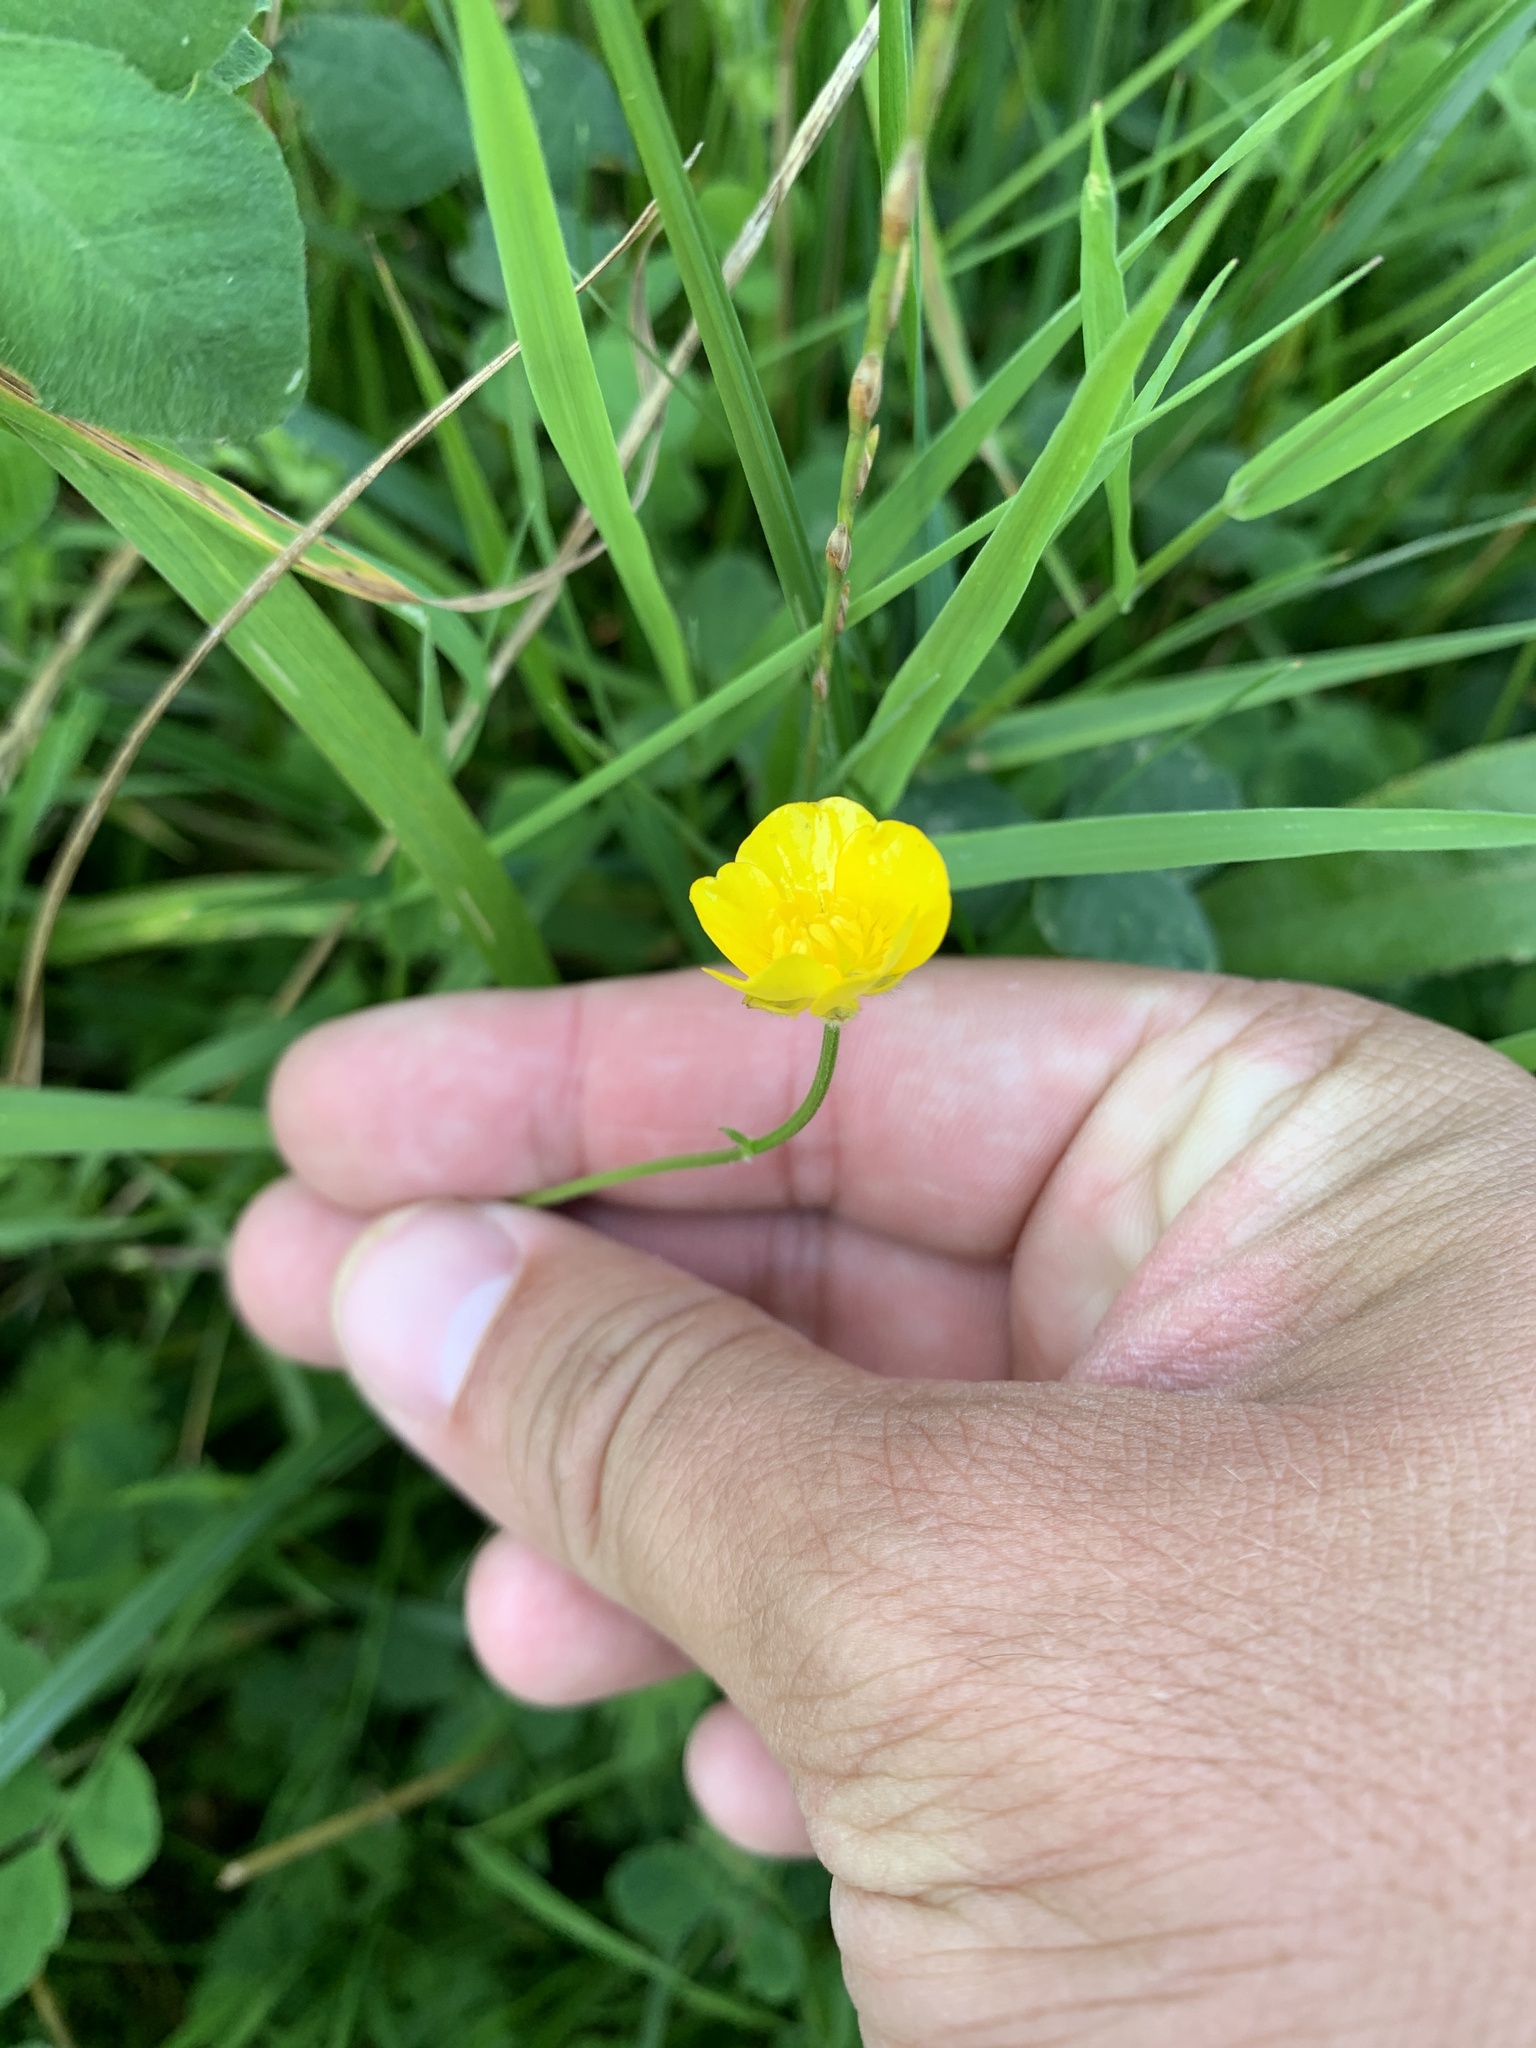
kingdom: Plantae
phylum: Tracheophyta
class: Magnoliopsida
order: Ranunculales
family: Ranunculaceae
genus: Ranunculus
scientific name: Ranunculus acris
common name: Meadow buttercup
